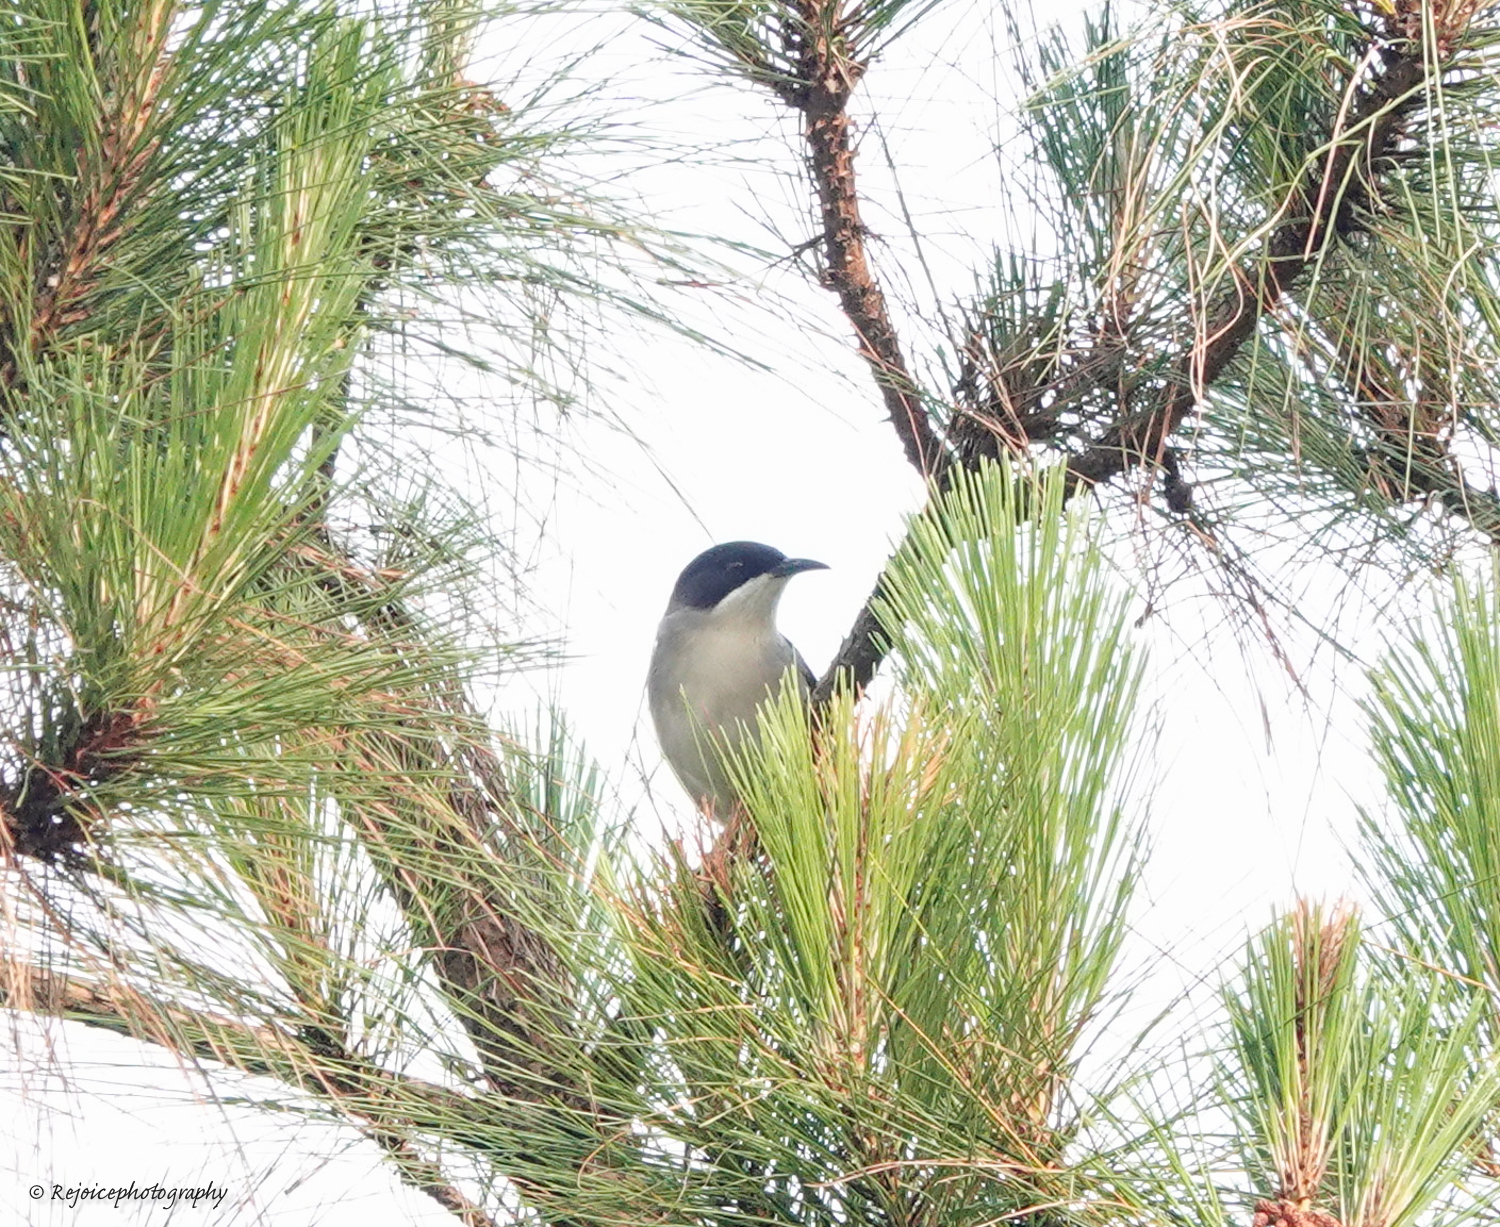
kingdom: Animalia
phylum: Chordata
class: Aves
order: Passeriformes
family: Leiothrichidae
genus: Heterophasia
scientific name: Heterophasia gracilis
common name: Grey sibia
